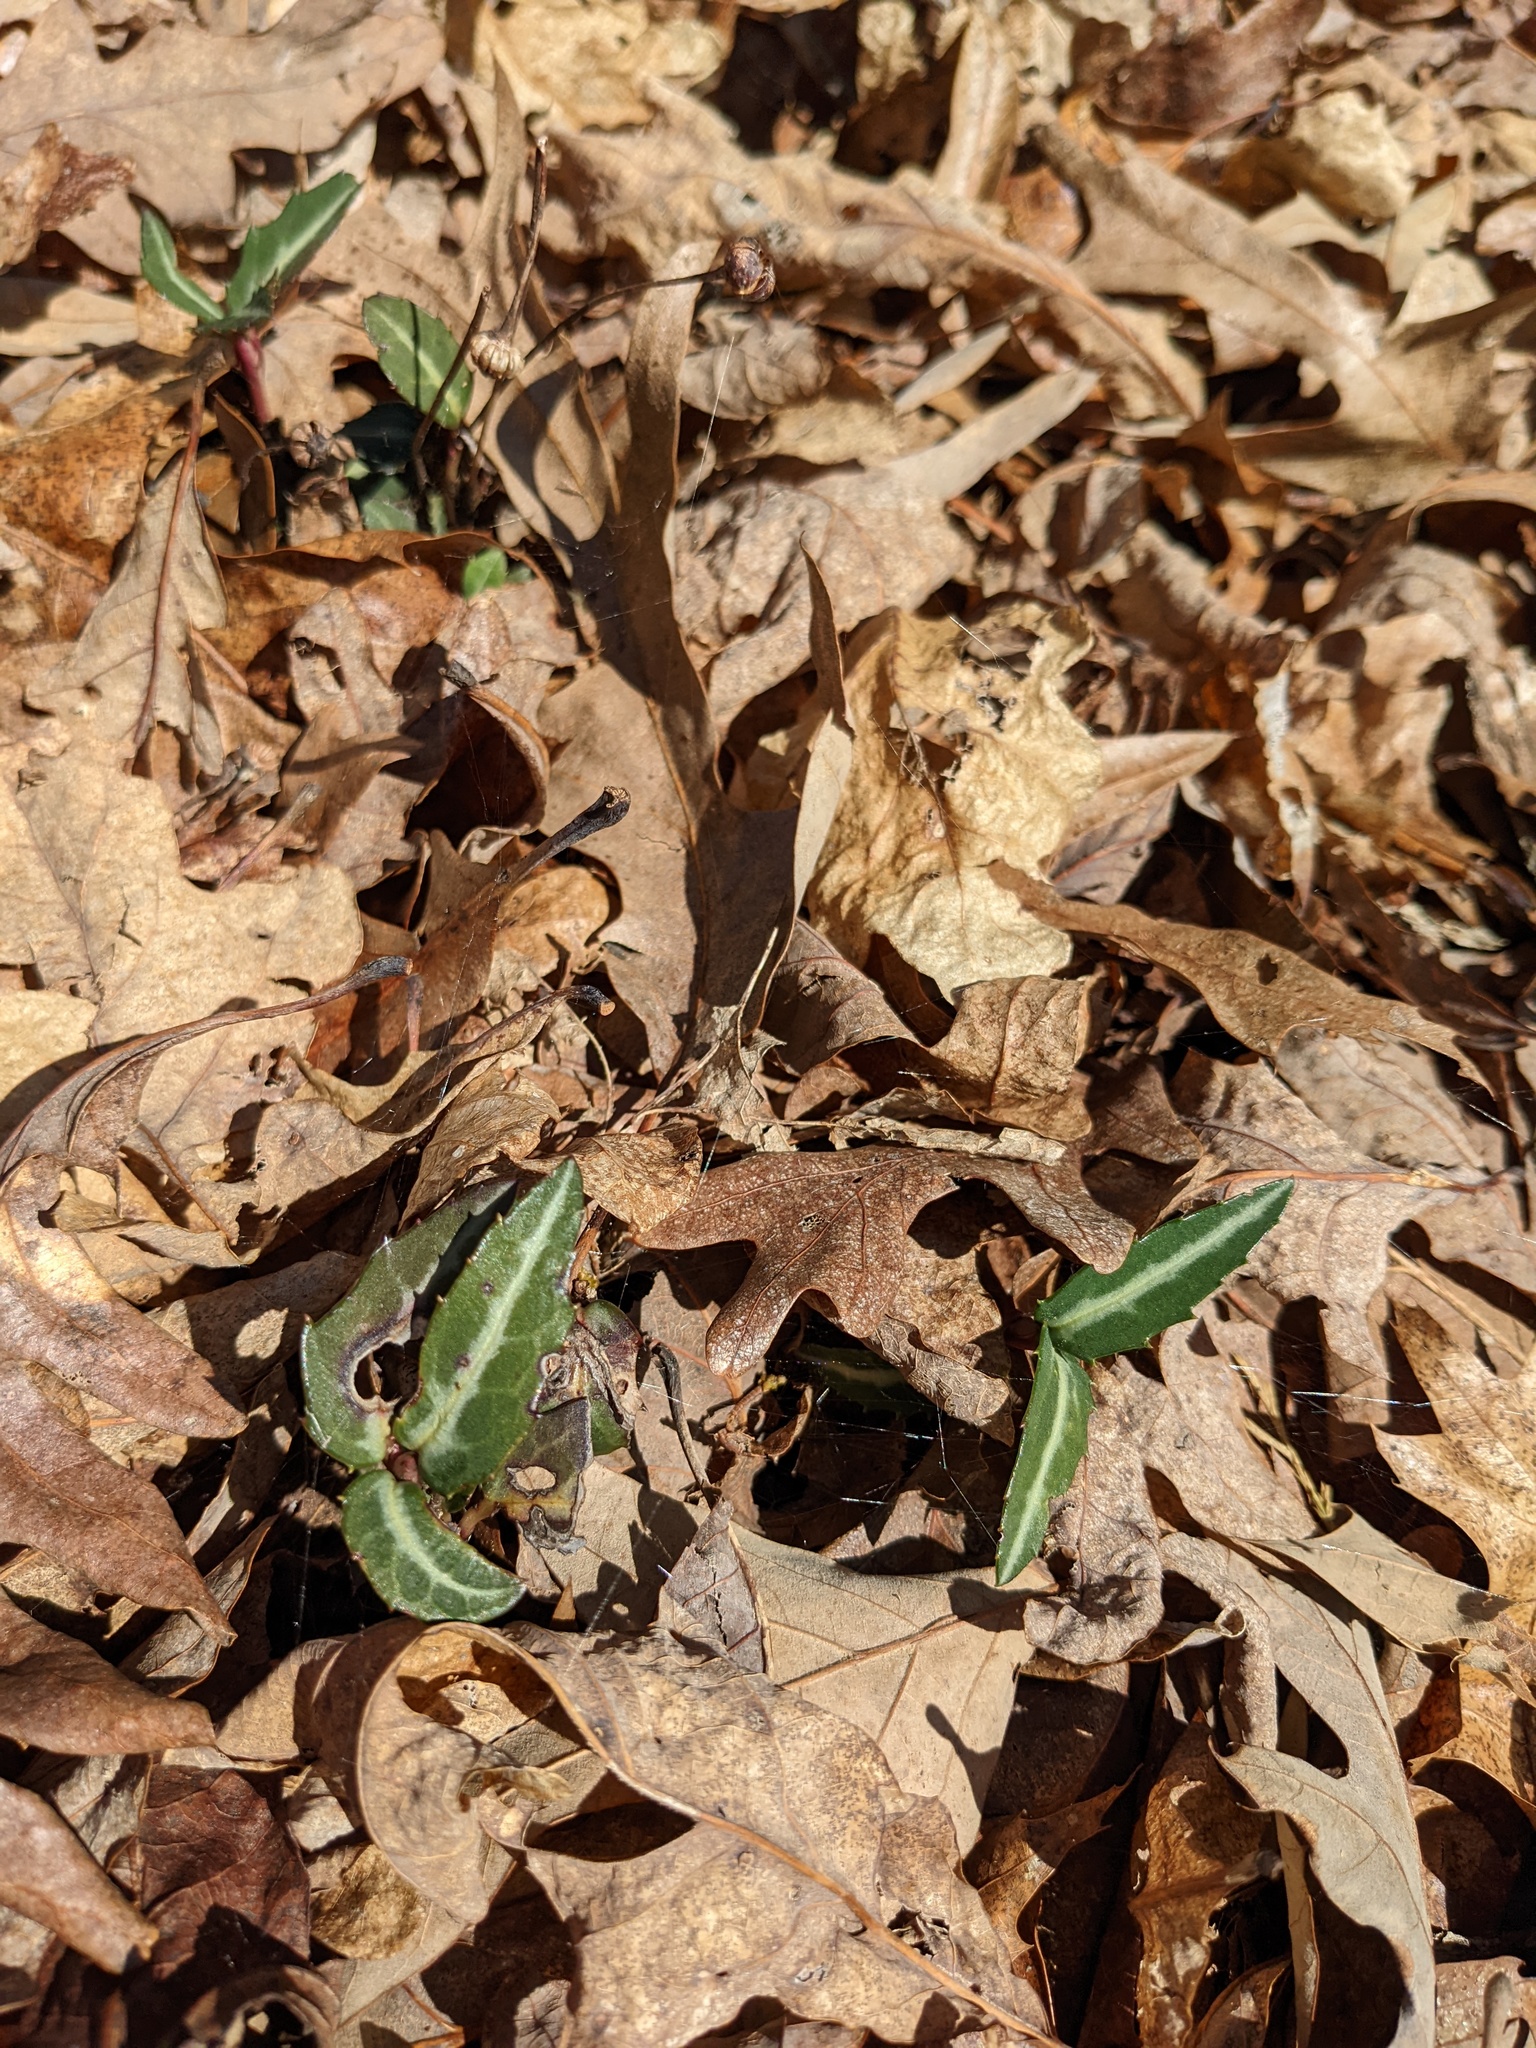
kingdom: Plantae
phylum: Tracheophyta
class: Magnoliopsida
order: Ericales
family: Ericaceae
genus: Chimaphila
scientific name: Chimaphila maculata
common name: Spotted pipsissewa
